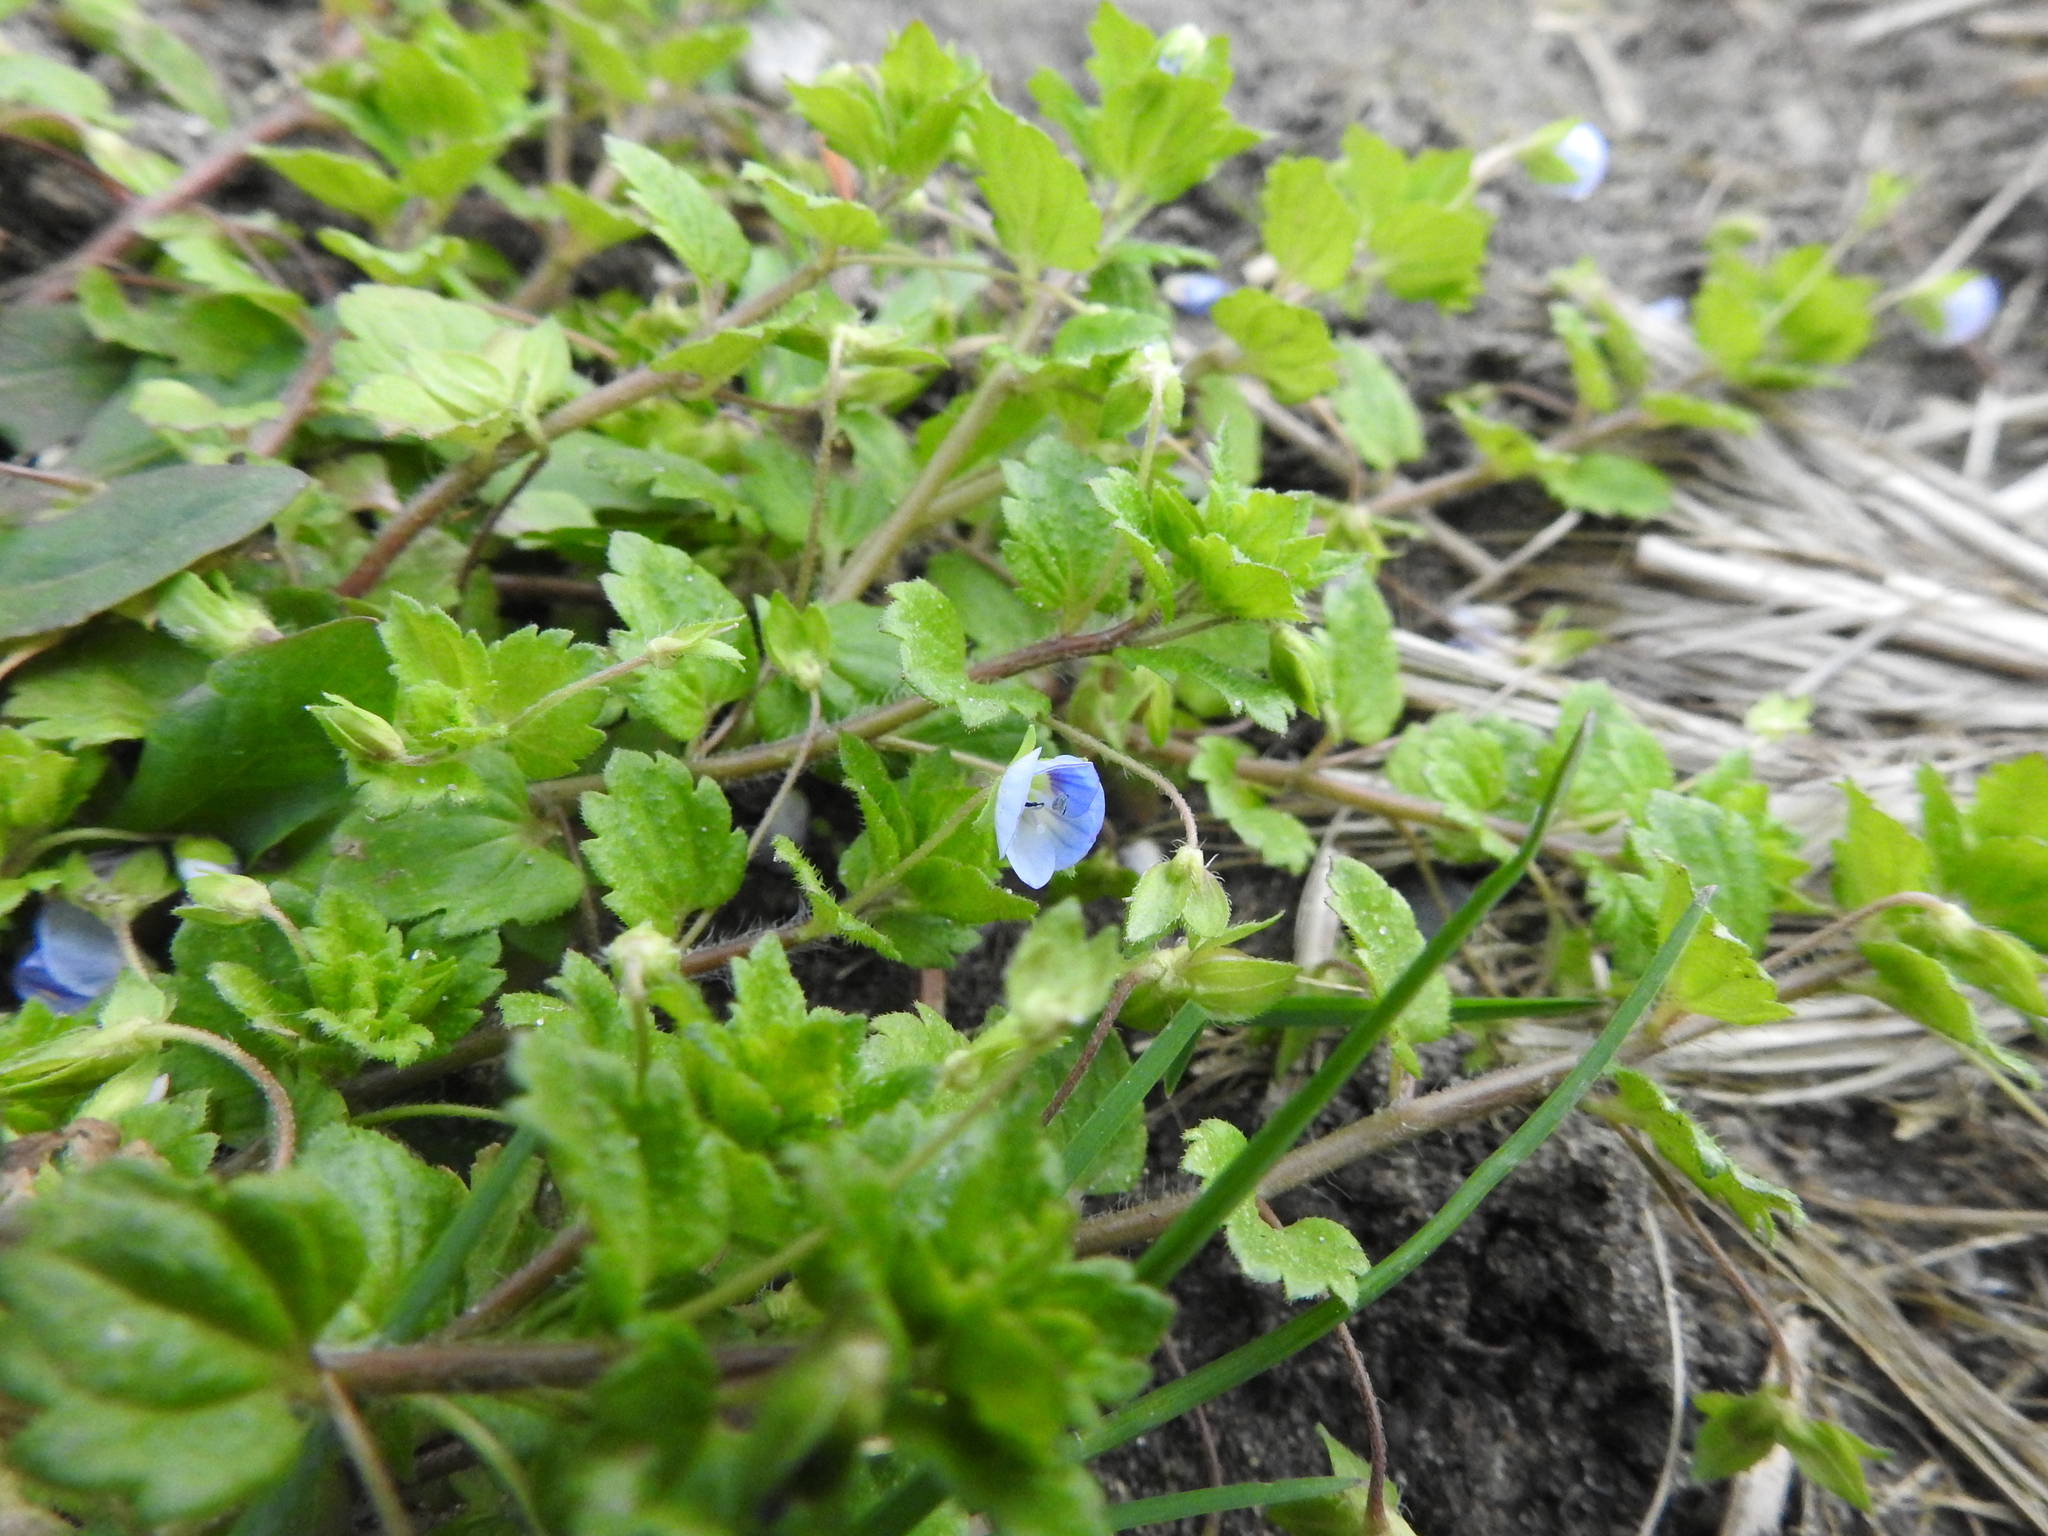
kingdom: Plantae
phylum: Tracheophyta
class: Magnoliopsida
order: Lamiales
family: Plantaginaceae
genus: Veronica
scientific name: Veronica persica
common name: Common field-speedwell
